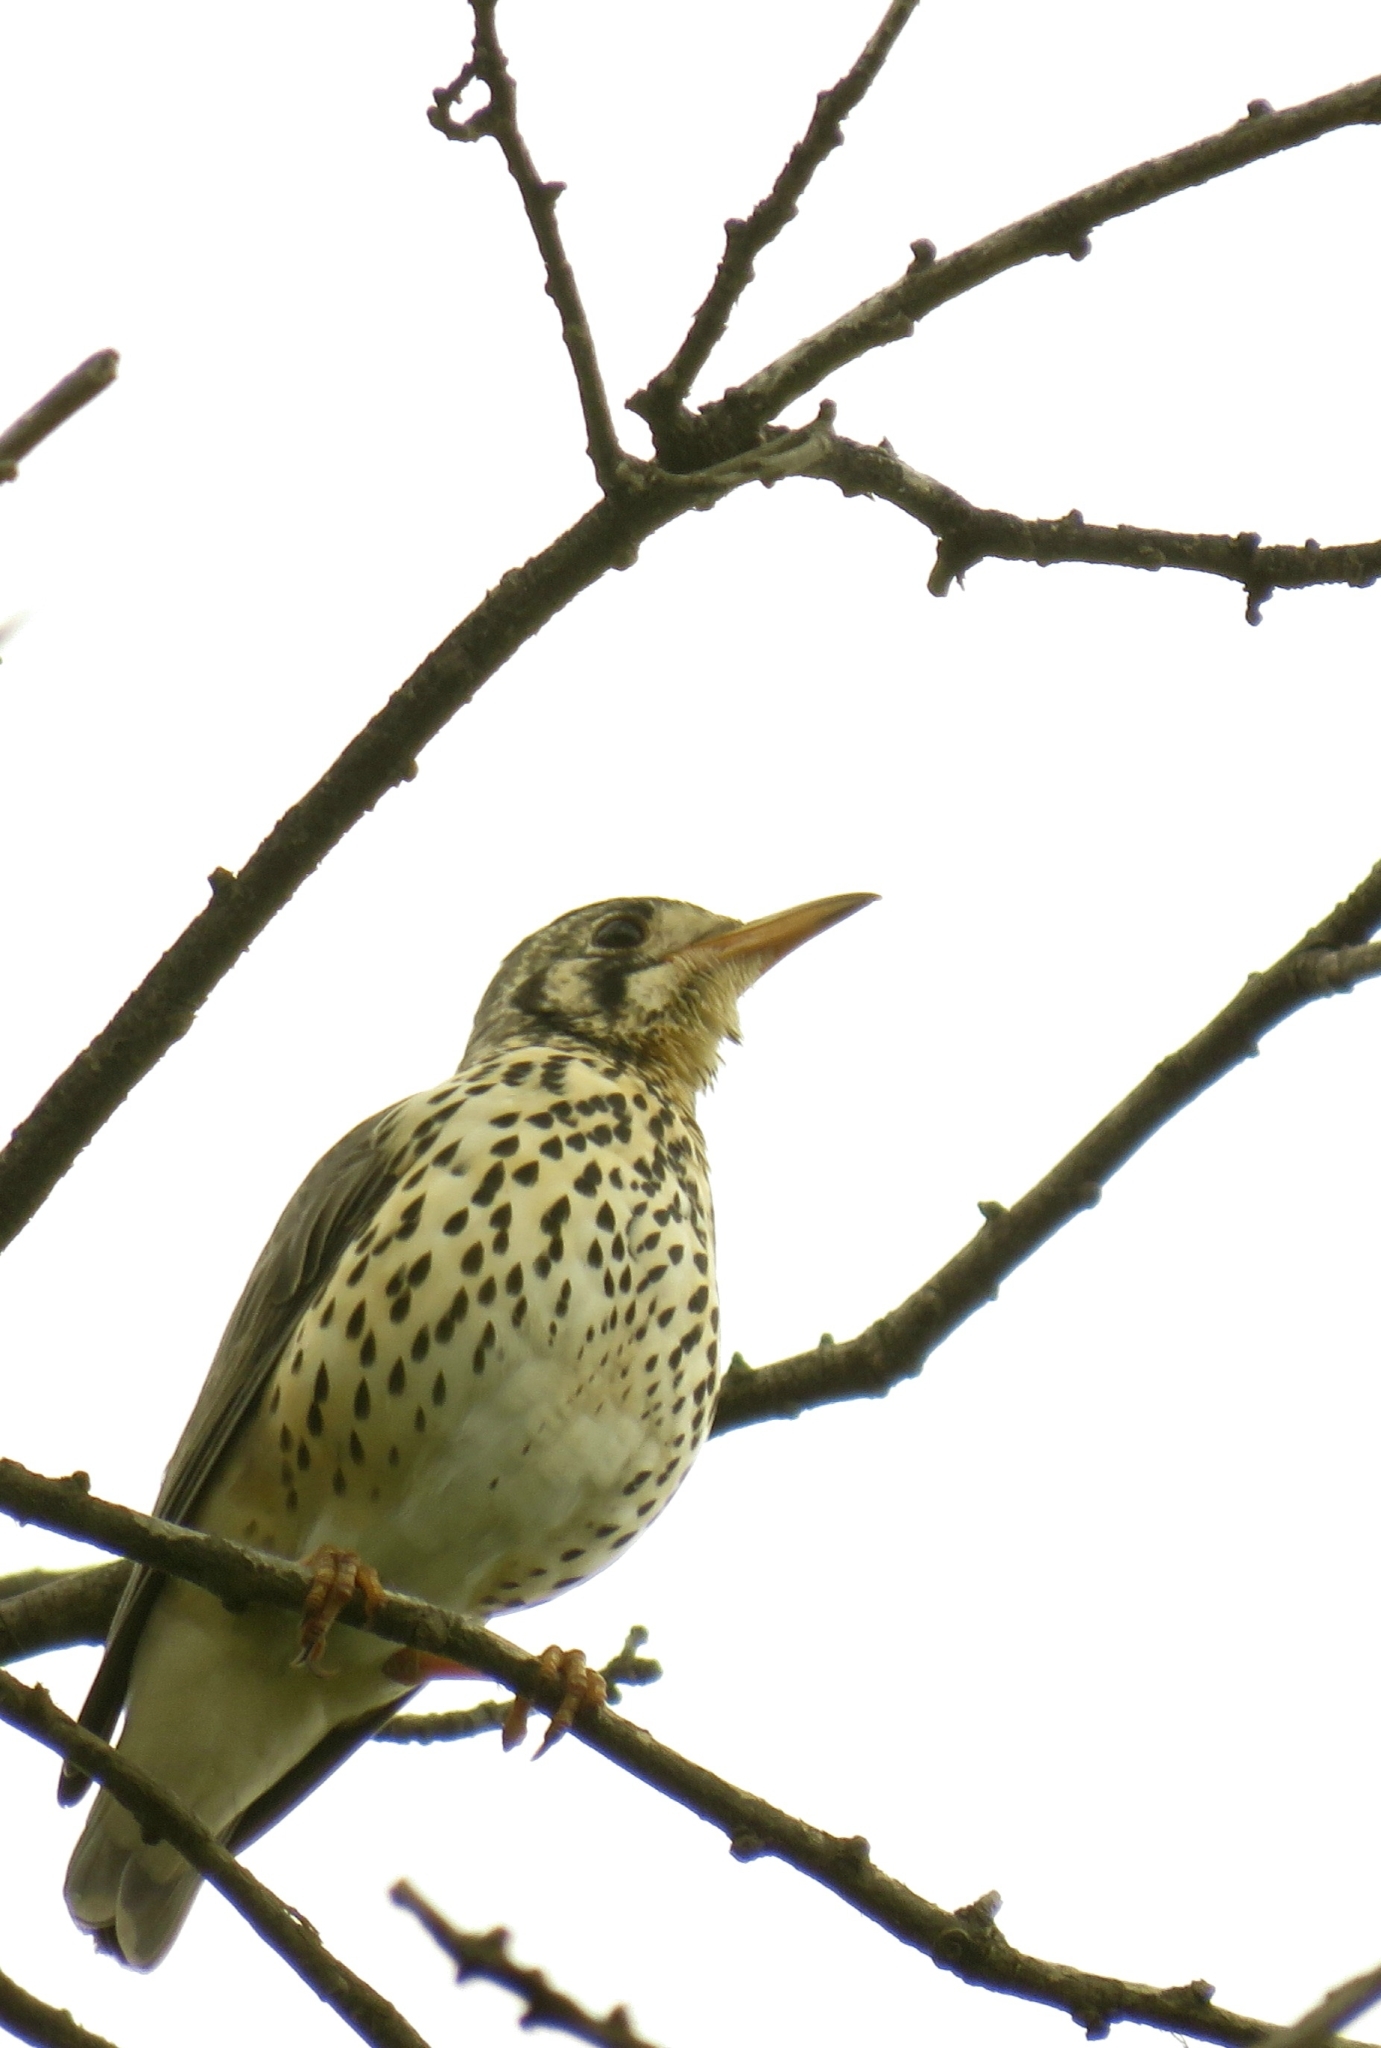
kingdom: Animalia
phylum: Chordata
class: Aves
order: Passeriformes
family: Turdidae
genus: Psophocichla
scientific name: Psophocichla litsitsirupa
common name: Groundscraper thrush
